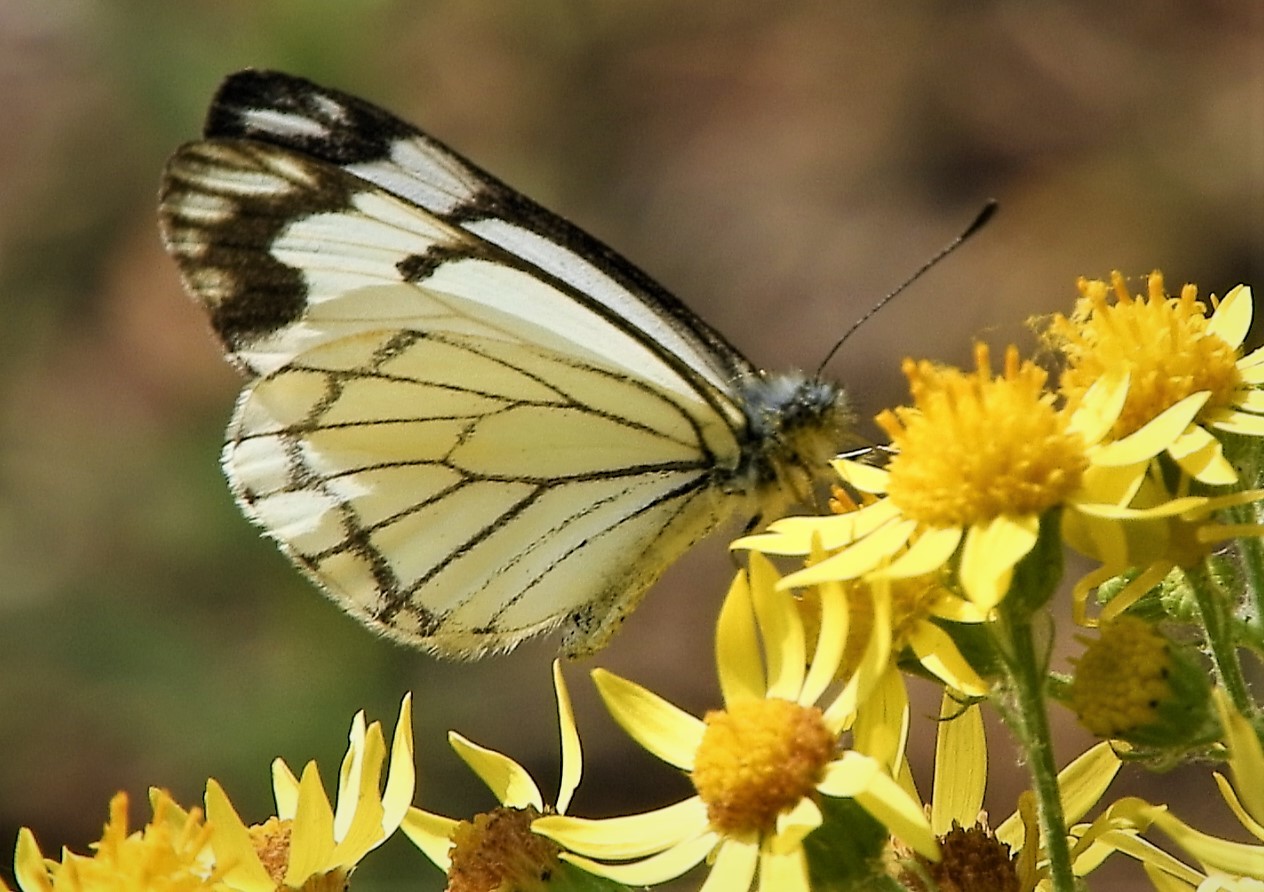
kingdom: Animalia
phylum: Arthropoda
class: Insecta
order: Lepidoptera
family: Pieridae
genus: Neophasia
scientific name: Neophasia menapia
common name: Pine white
